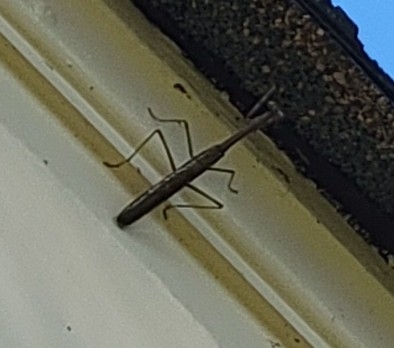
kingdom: Animalia
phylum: Arthropoda
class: Insecta
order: Mantodea
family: Mantidae
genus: Stagmomantis
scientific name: Stagmomantis carolina
